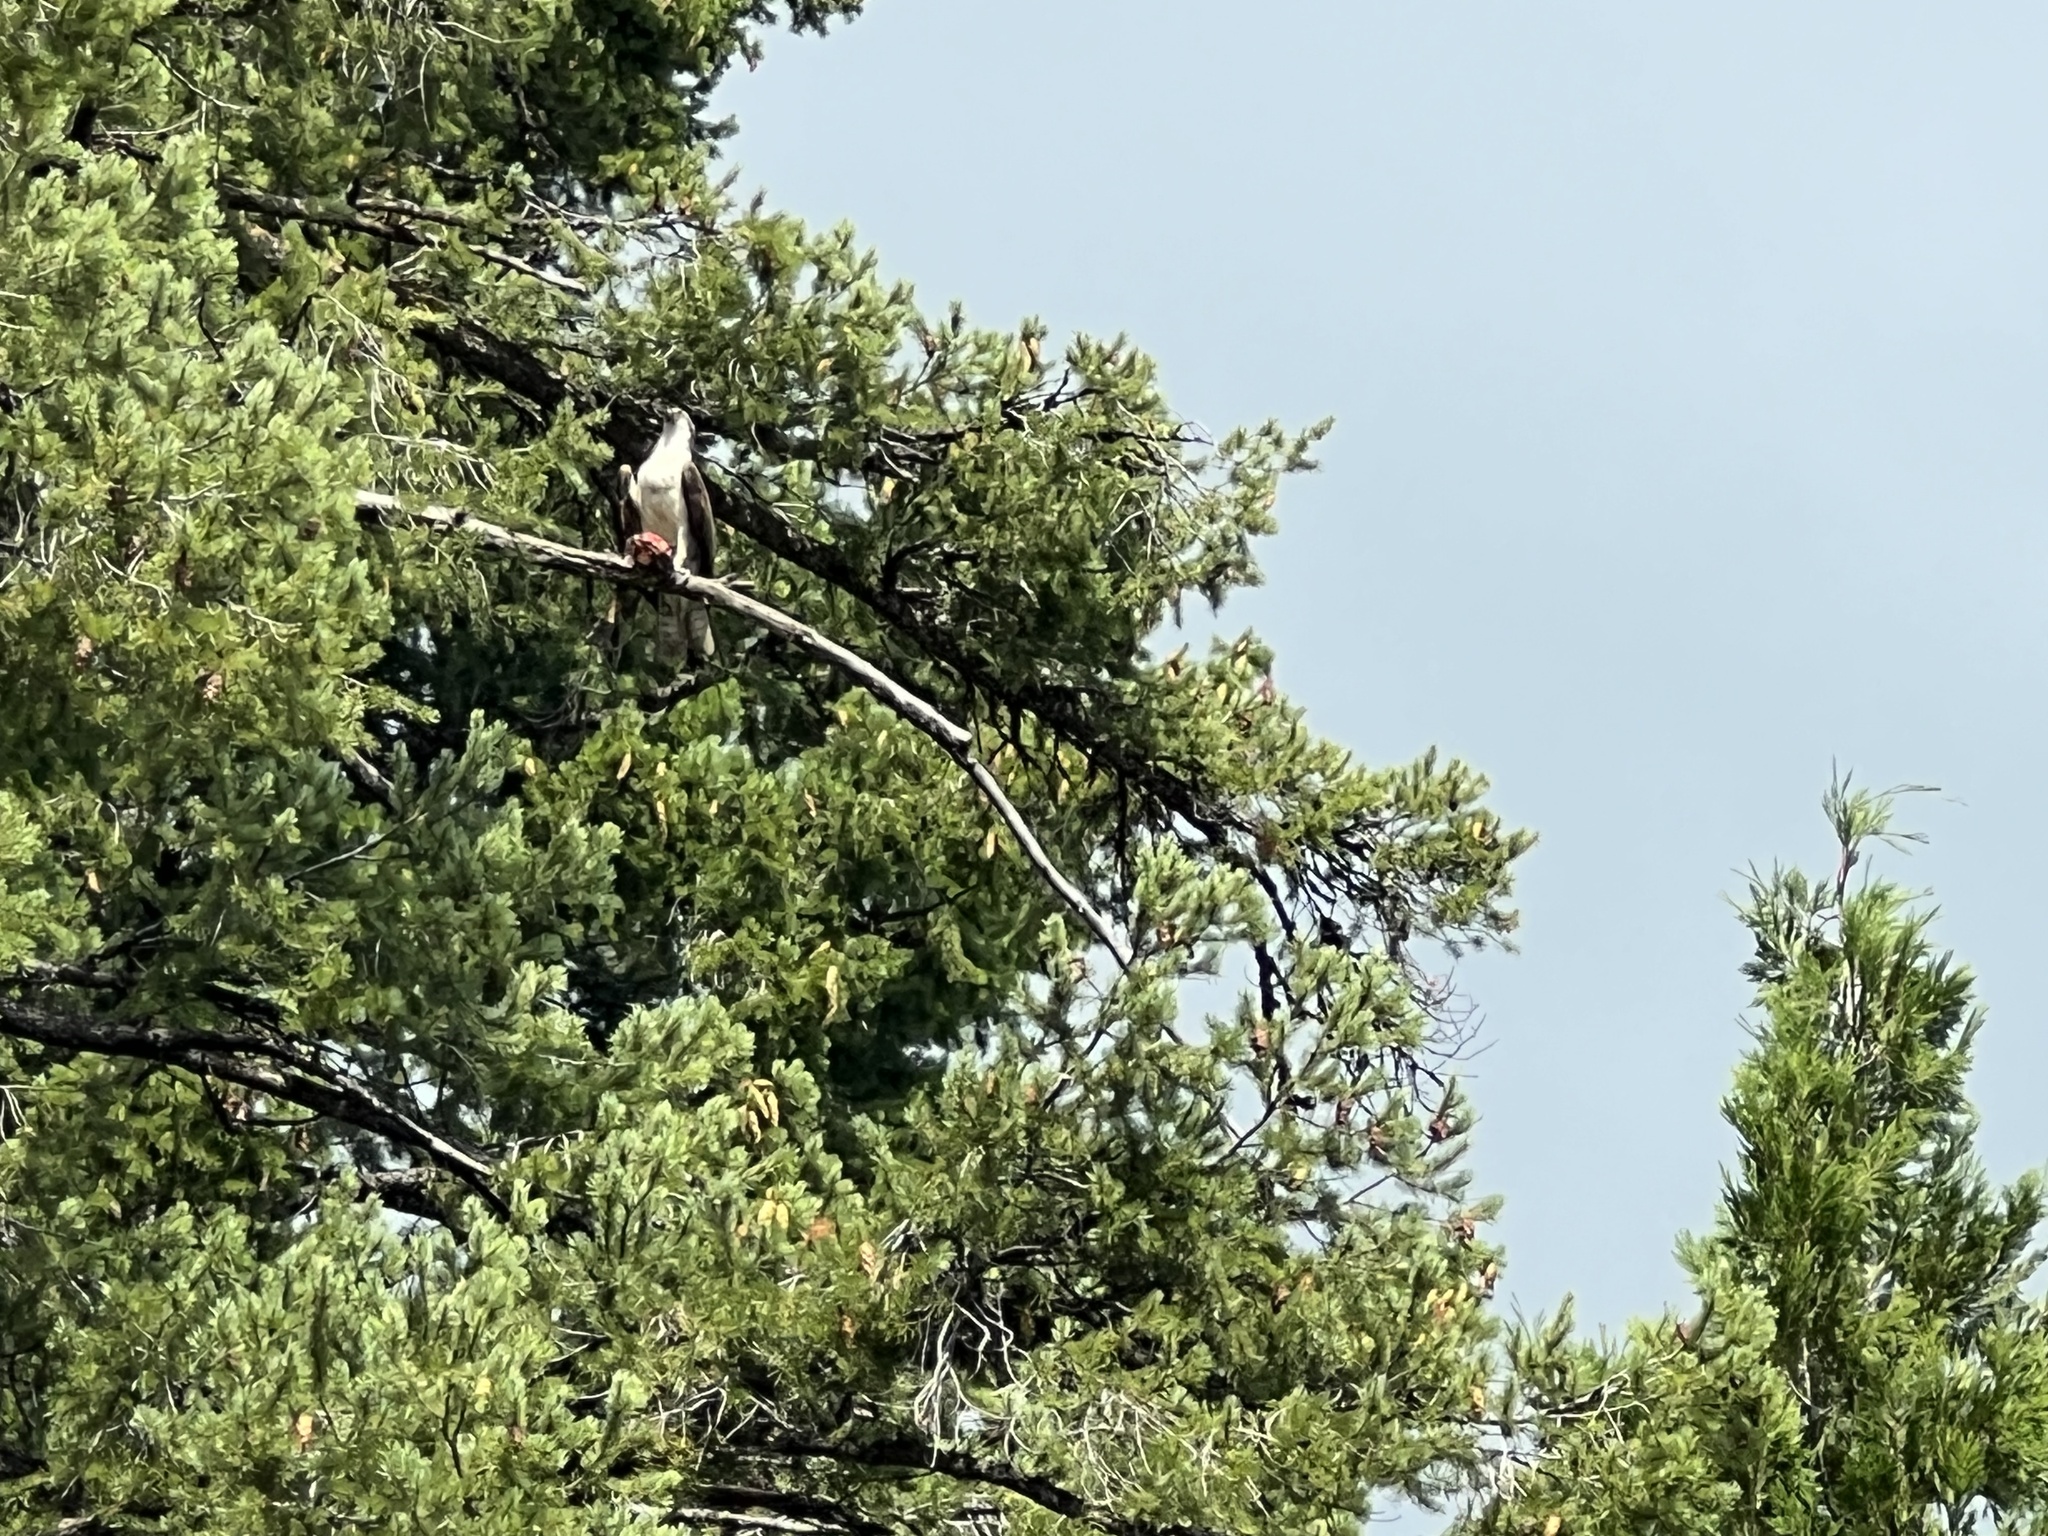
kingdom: Animalia
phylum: Chordata
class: Aves
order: Accipitriformes
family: Pandionidae
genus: Pandion
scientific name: Pandion haliaetus
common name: Osprey
